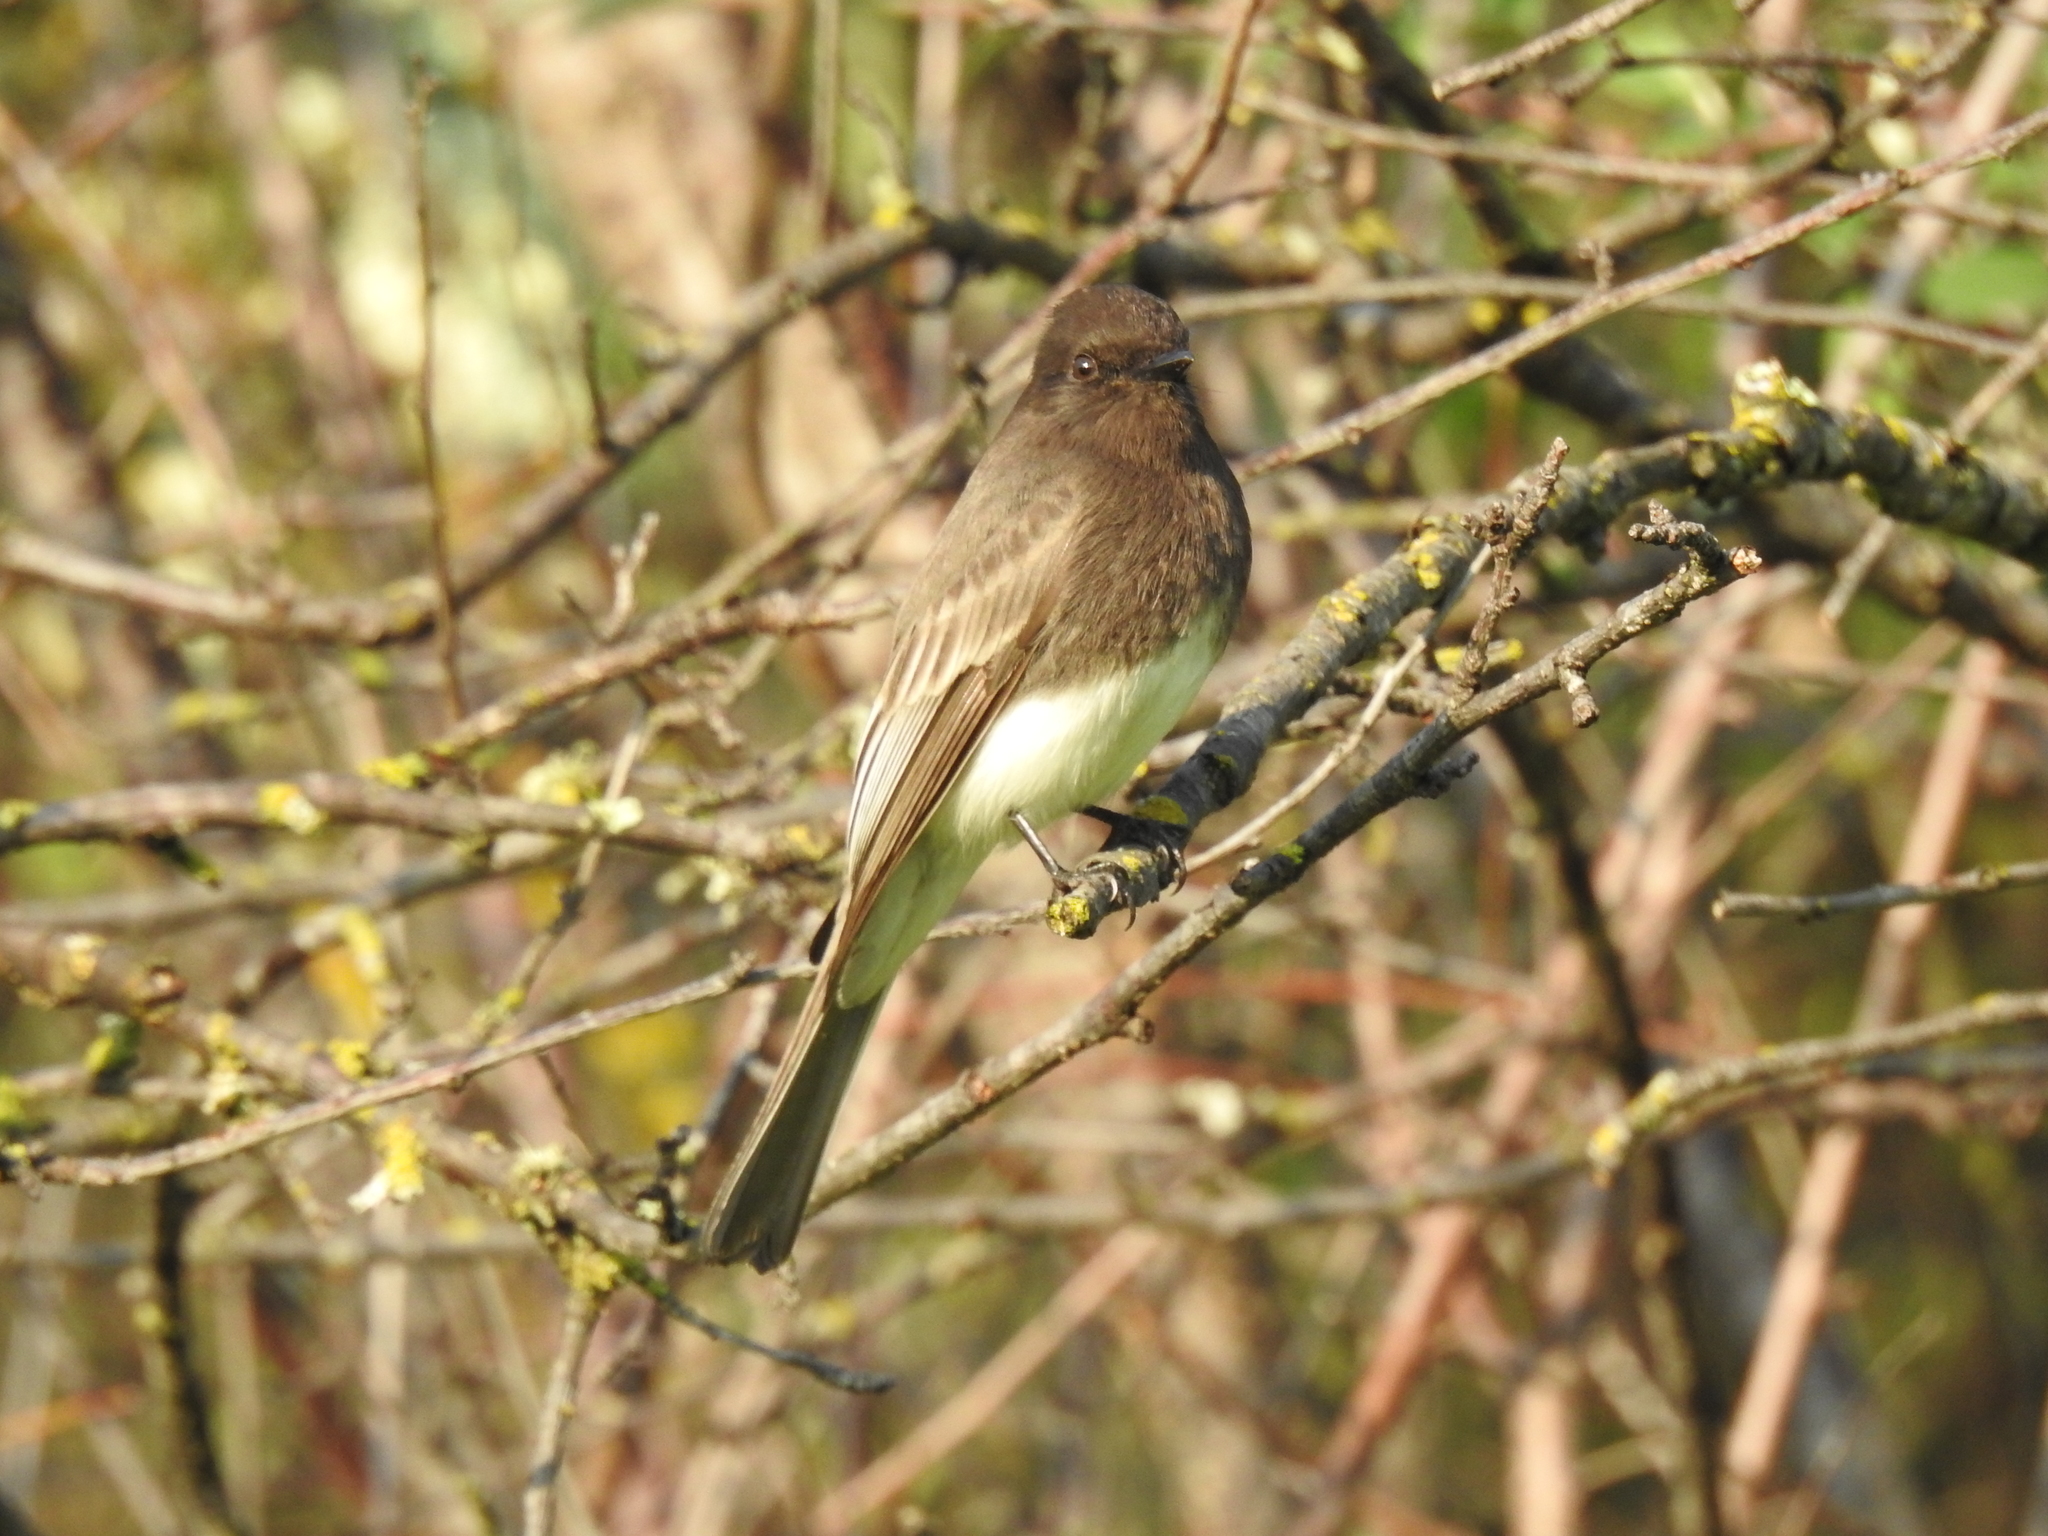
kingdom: Animalia
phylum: Chordata
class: Aves
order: Passeriformes
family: Tyrannidae
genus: Sayornis
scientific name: Sayornis nigricans
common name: Black phoebe
